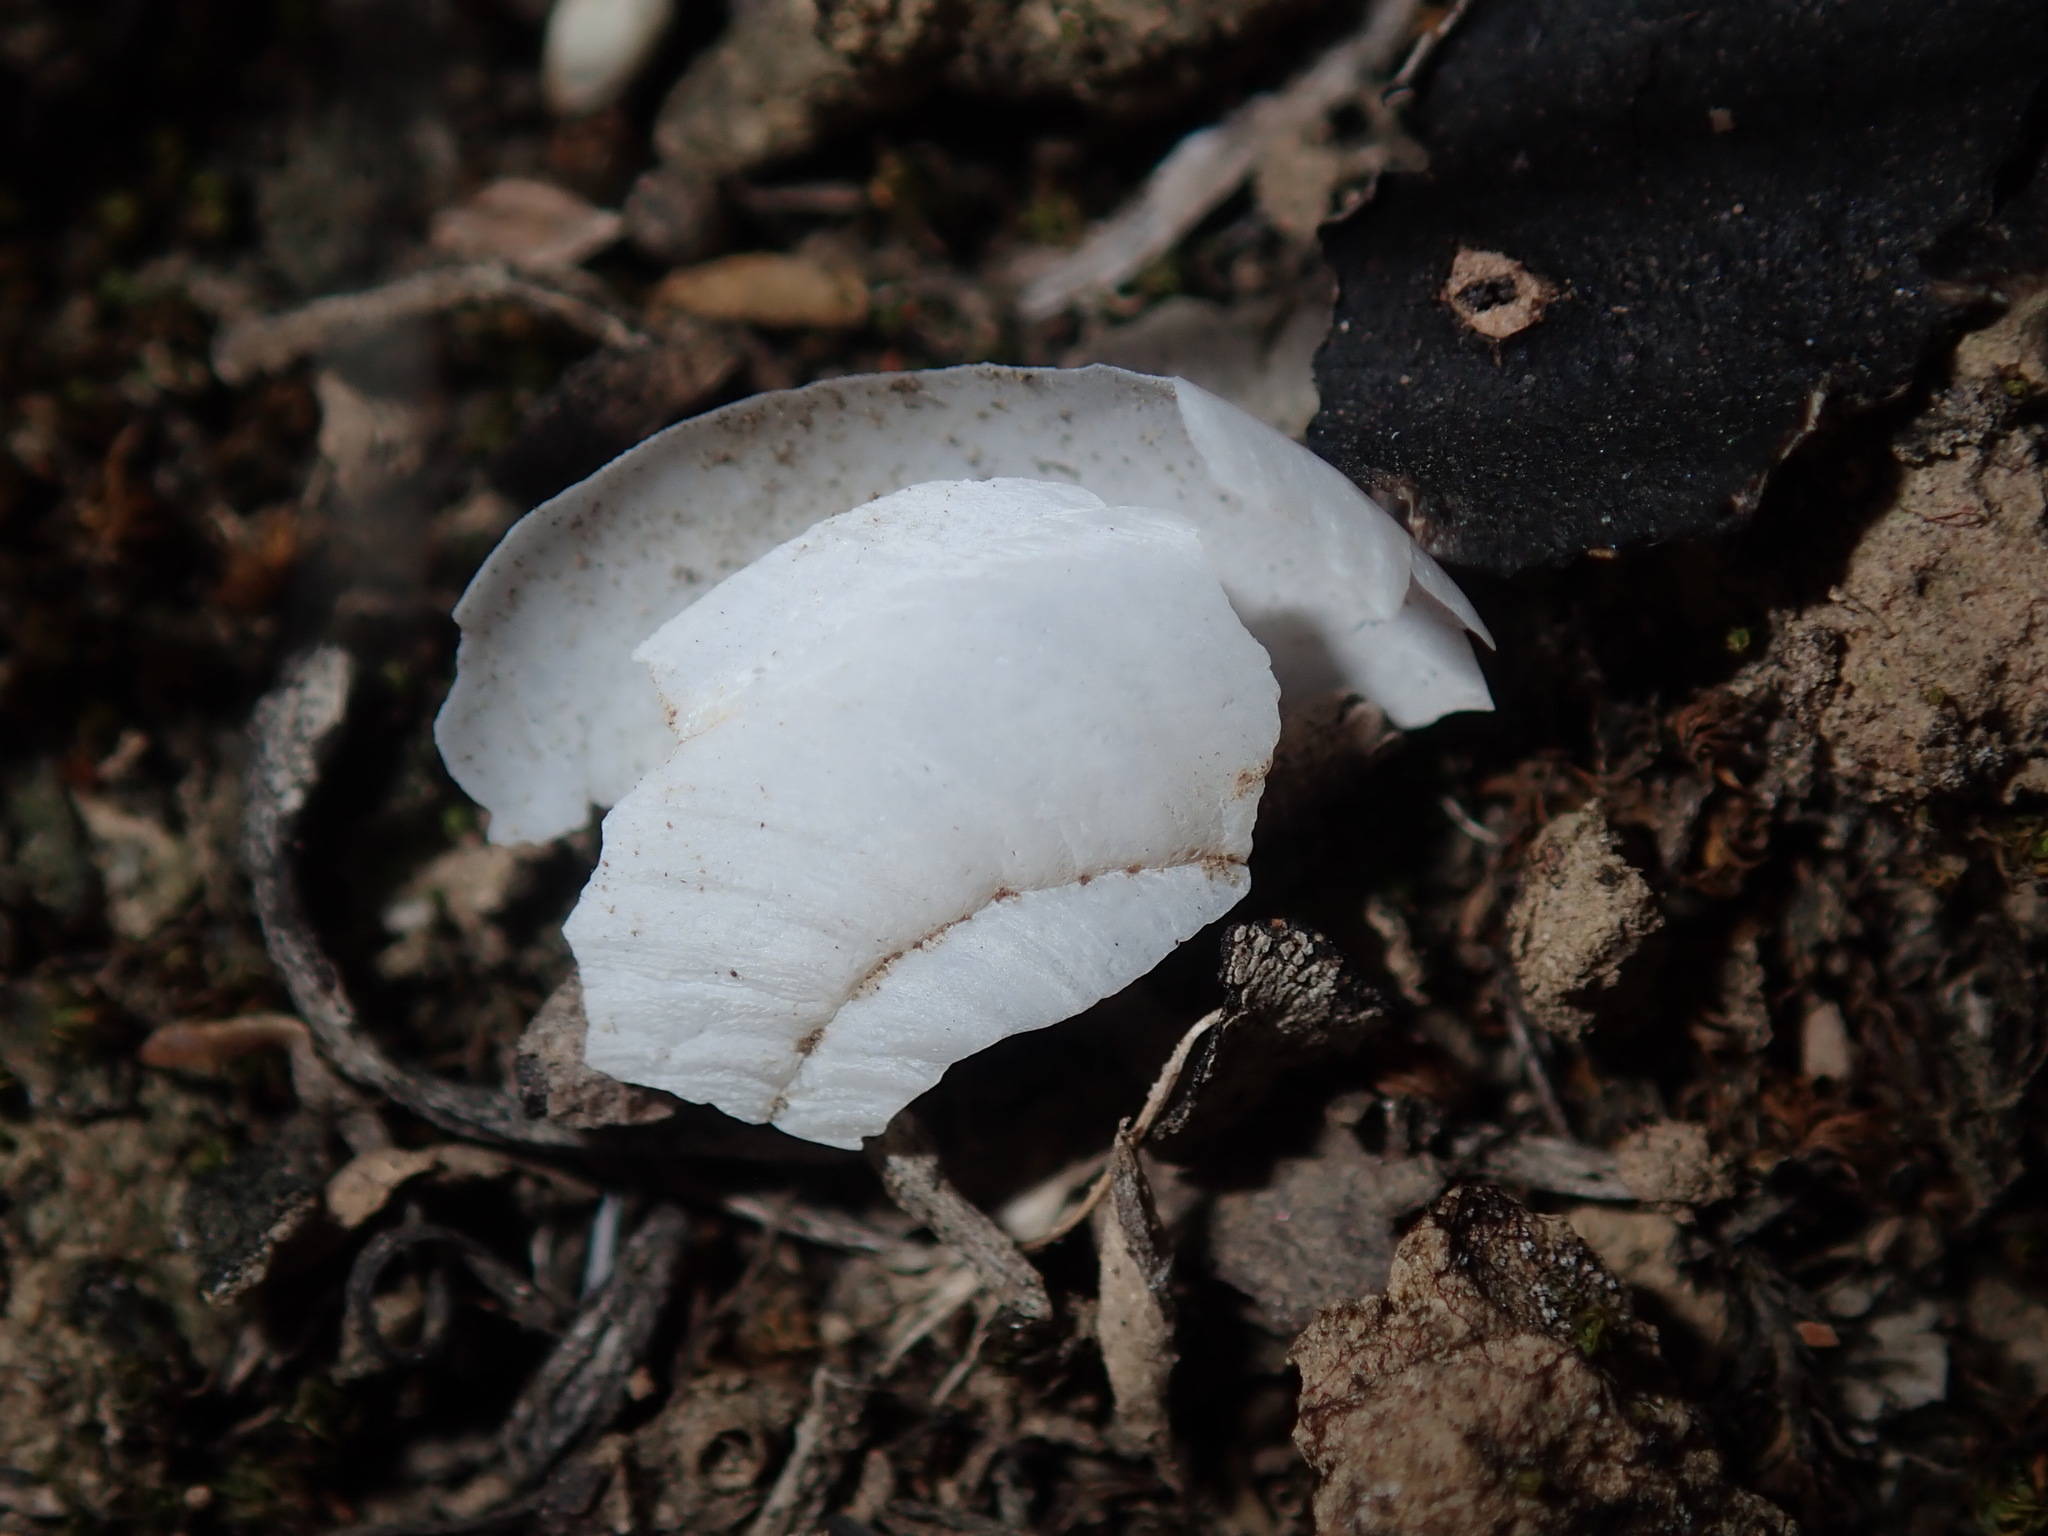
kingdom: Animalia
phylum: Mollusca
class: Gastropoda
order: Stylommatophora
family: Camaenidae
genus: Sauroconcha
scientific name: Sauroconcha sheai
